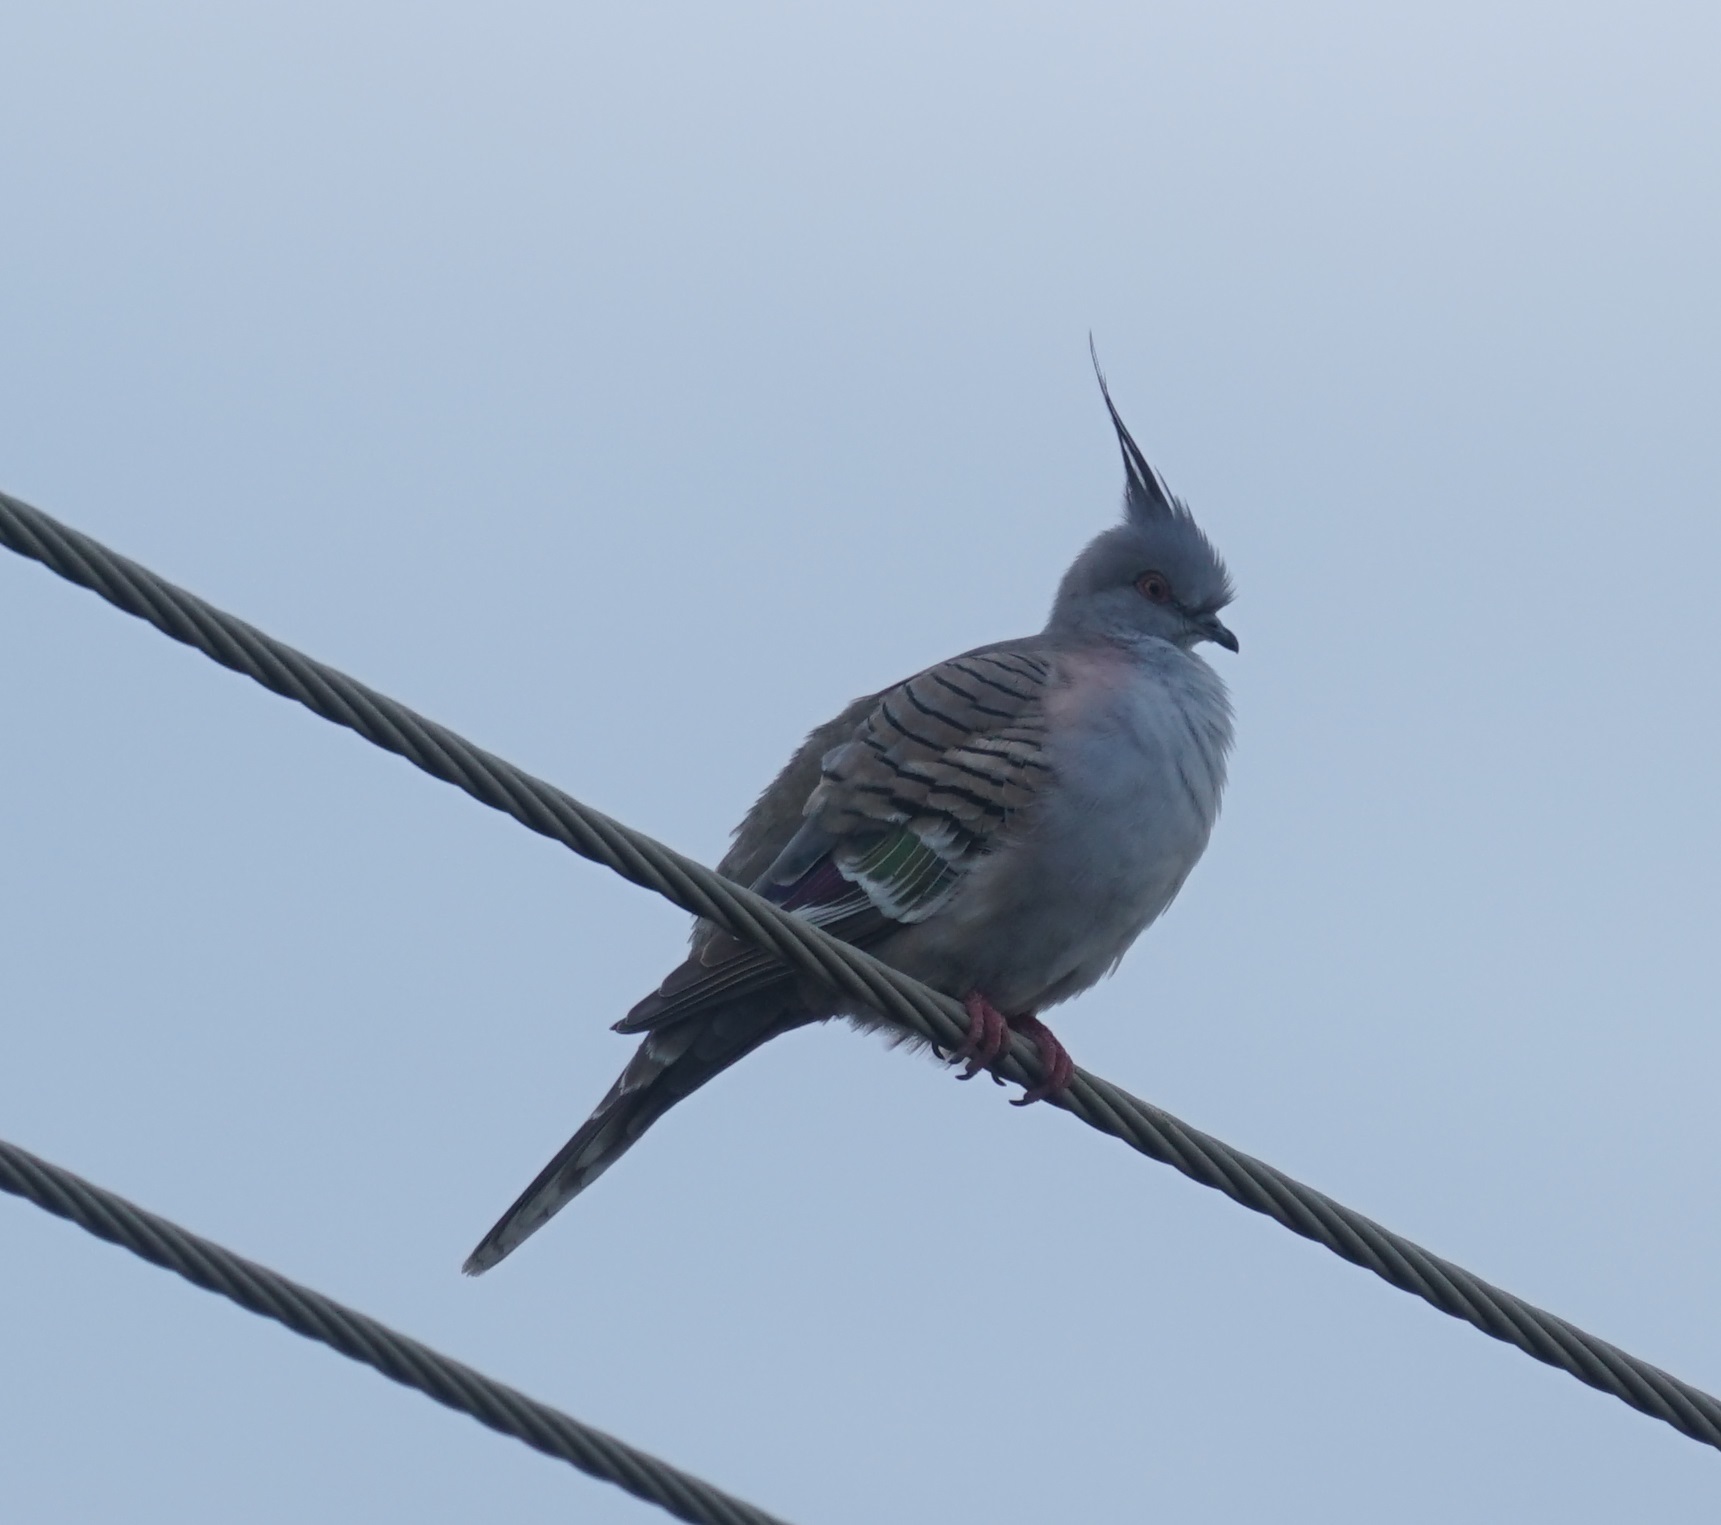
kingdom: Animalia
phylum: Chordata
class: Aves
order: Columbiformes
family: Columbidae
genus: Ocyphaps
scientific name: Ocyphaps lophotes
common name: Crested pigeon
